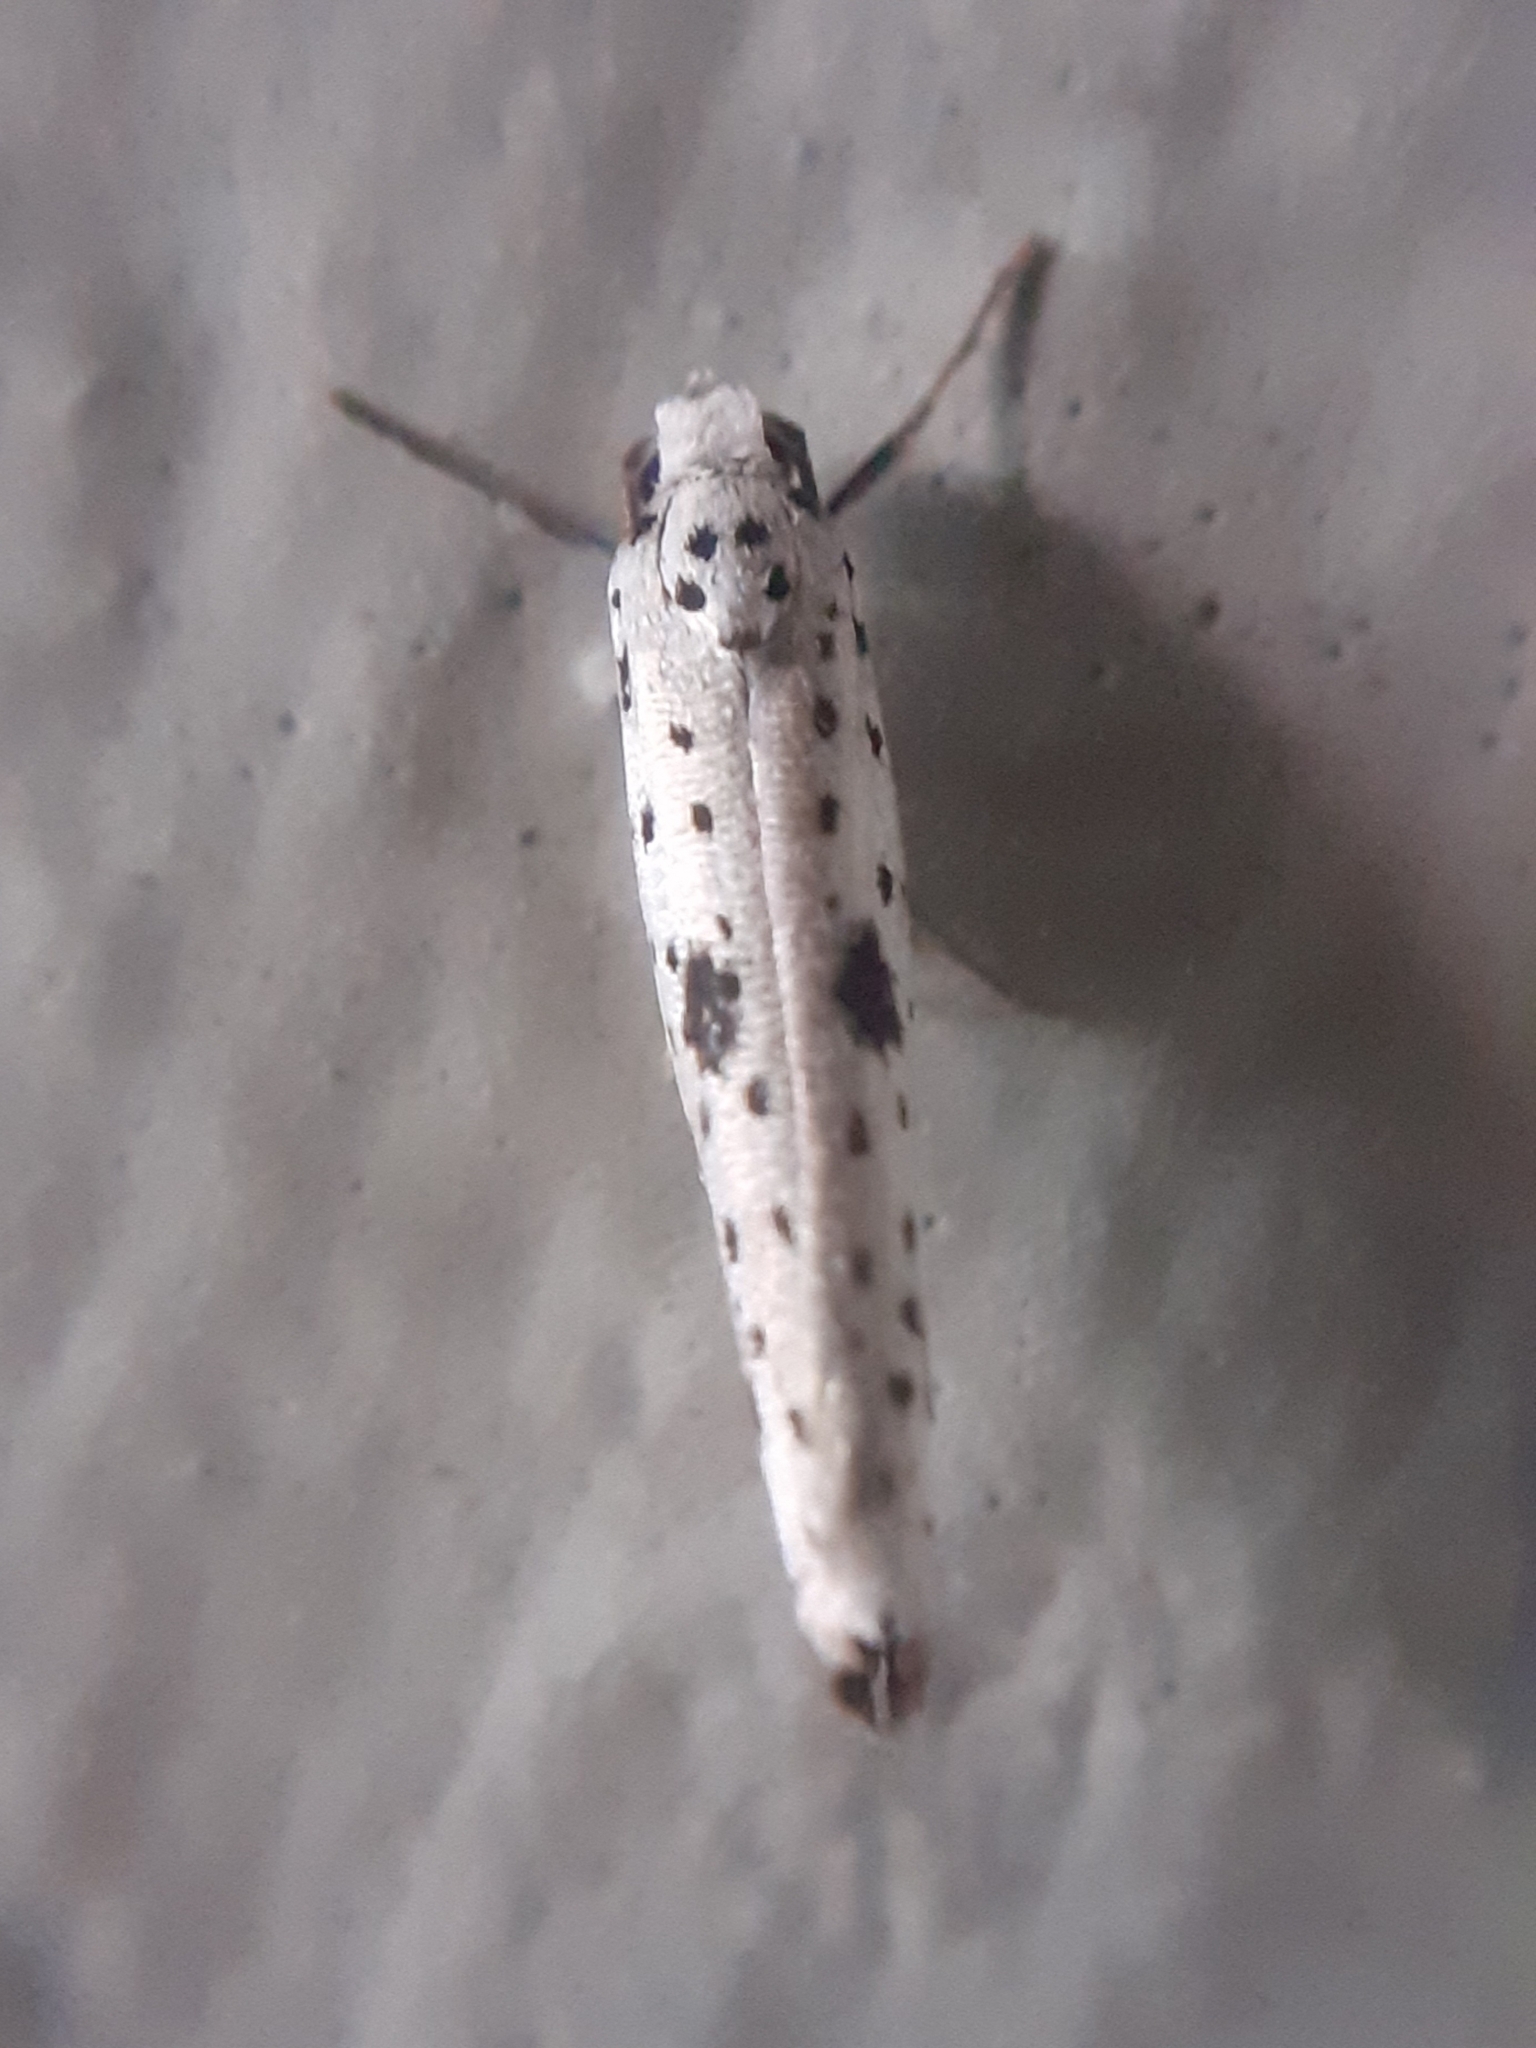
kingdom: Animalia
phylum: Arthropoda
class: Insecta
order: Lepidoptera
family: Yponomeutidae
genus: Yponomeuta
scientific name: Yponomeuta plumbella
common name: Black-tipped ermine
